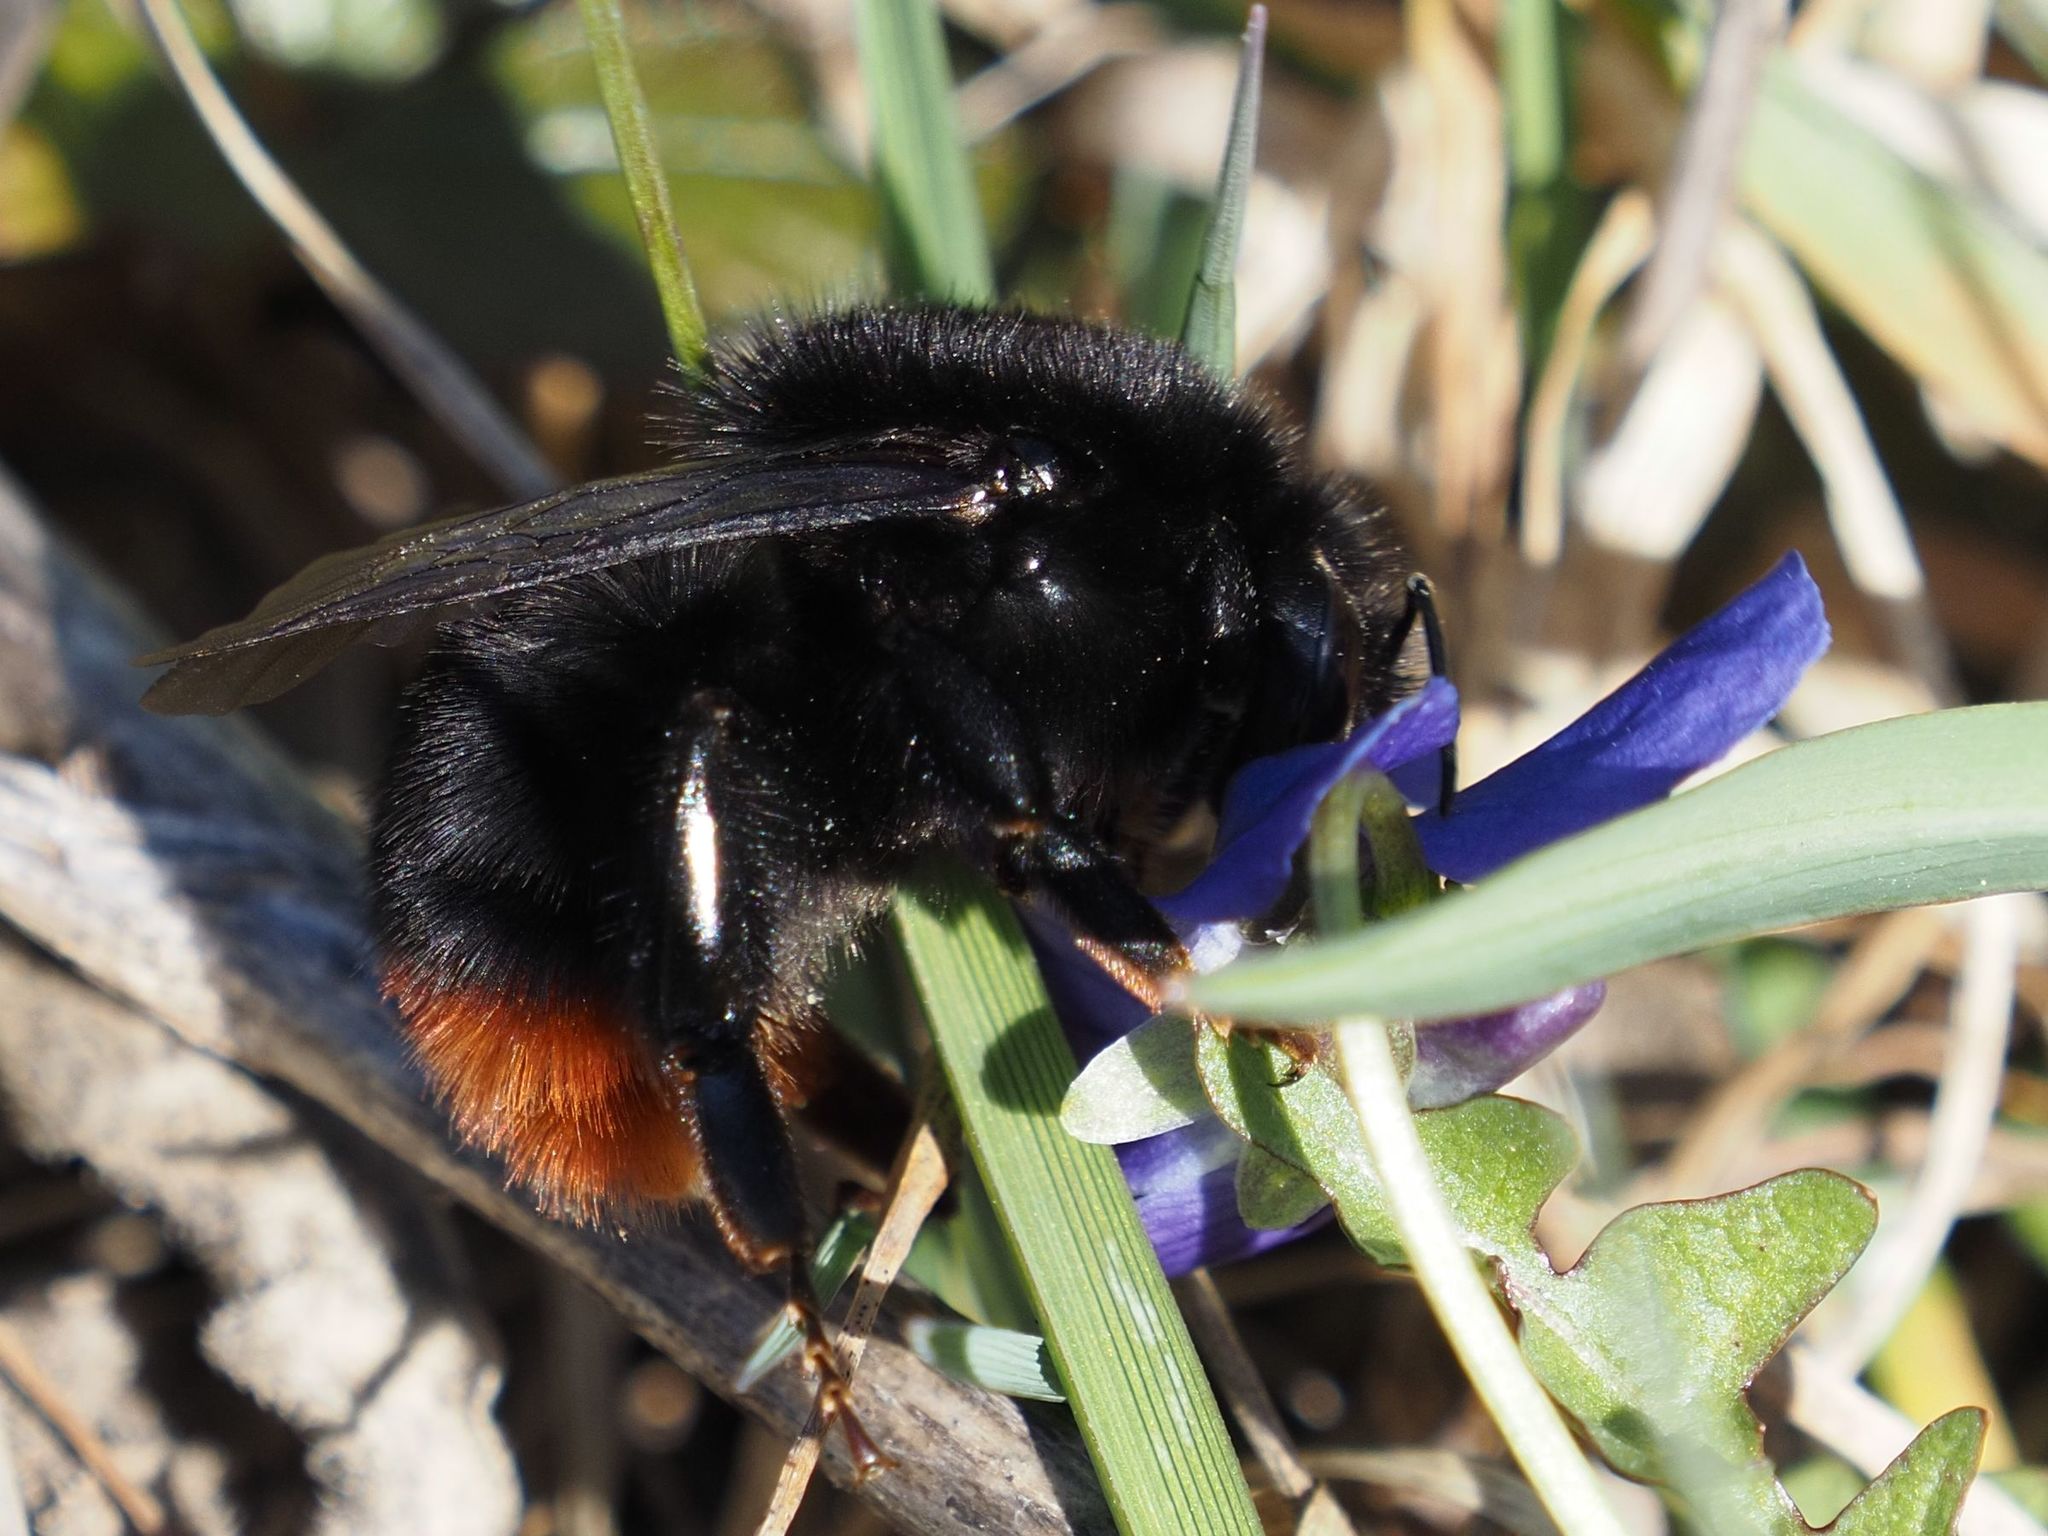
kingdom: Animalia
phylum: Arthropoda
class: Insecta
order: Hymenoptera
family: Apidae
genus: Bombus
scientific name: Bombus lapidarius
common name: Large red-tailed humble-bee
